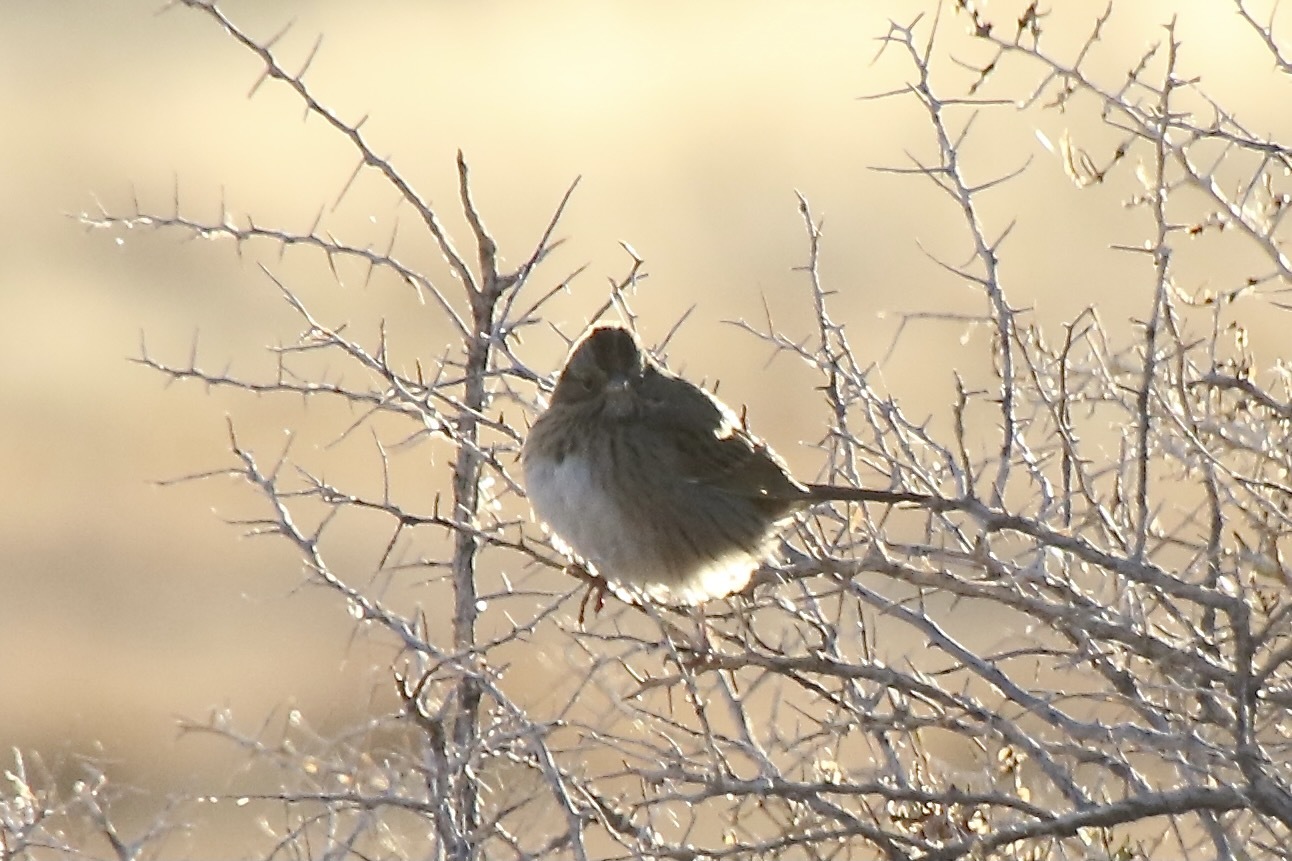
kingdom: Animalia
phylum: Chordata
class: Aves
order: Passeriformes
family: Passerellidae
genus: Melospiza
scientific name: Melospiza lincolnii
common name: Lincoln's sparrow
